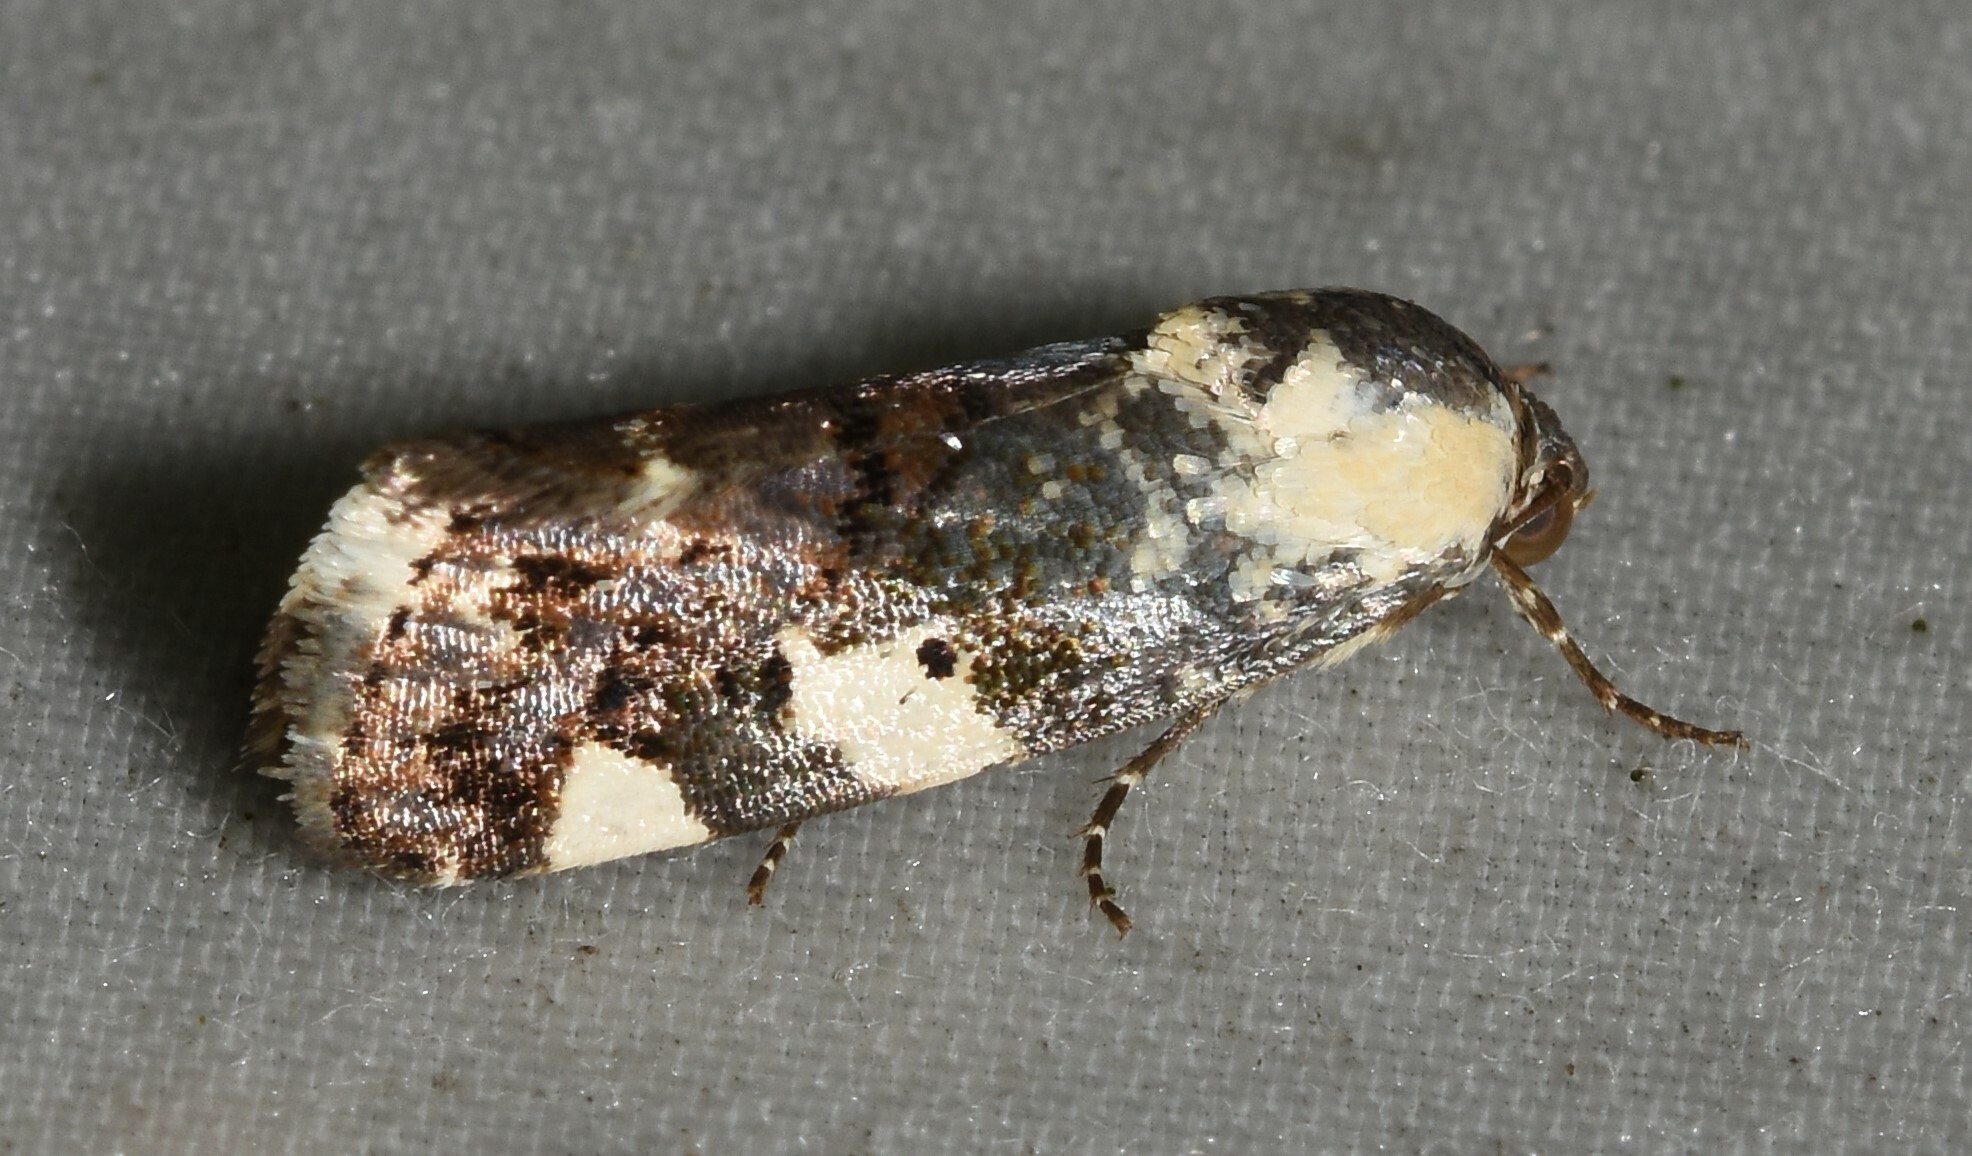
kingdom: Animalia
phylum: Arthropoda
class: Insecta
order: Lepidoptera
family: Noctuidae
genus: Acontia
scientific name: Acontia aprica
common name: Nun
